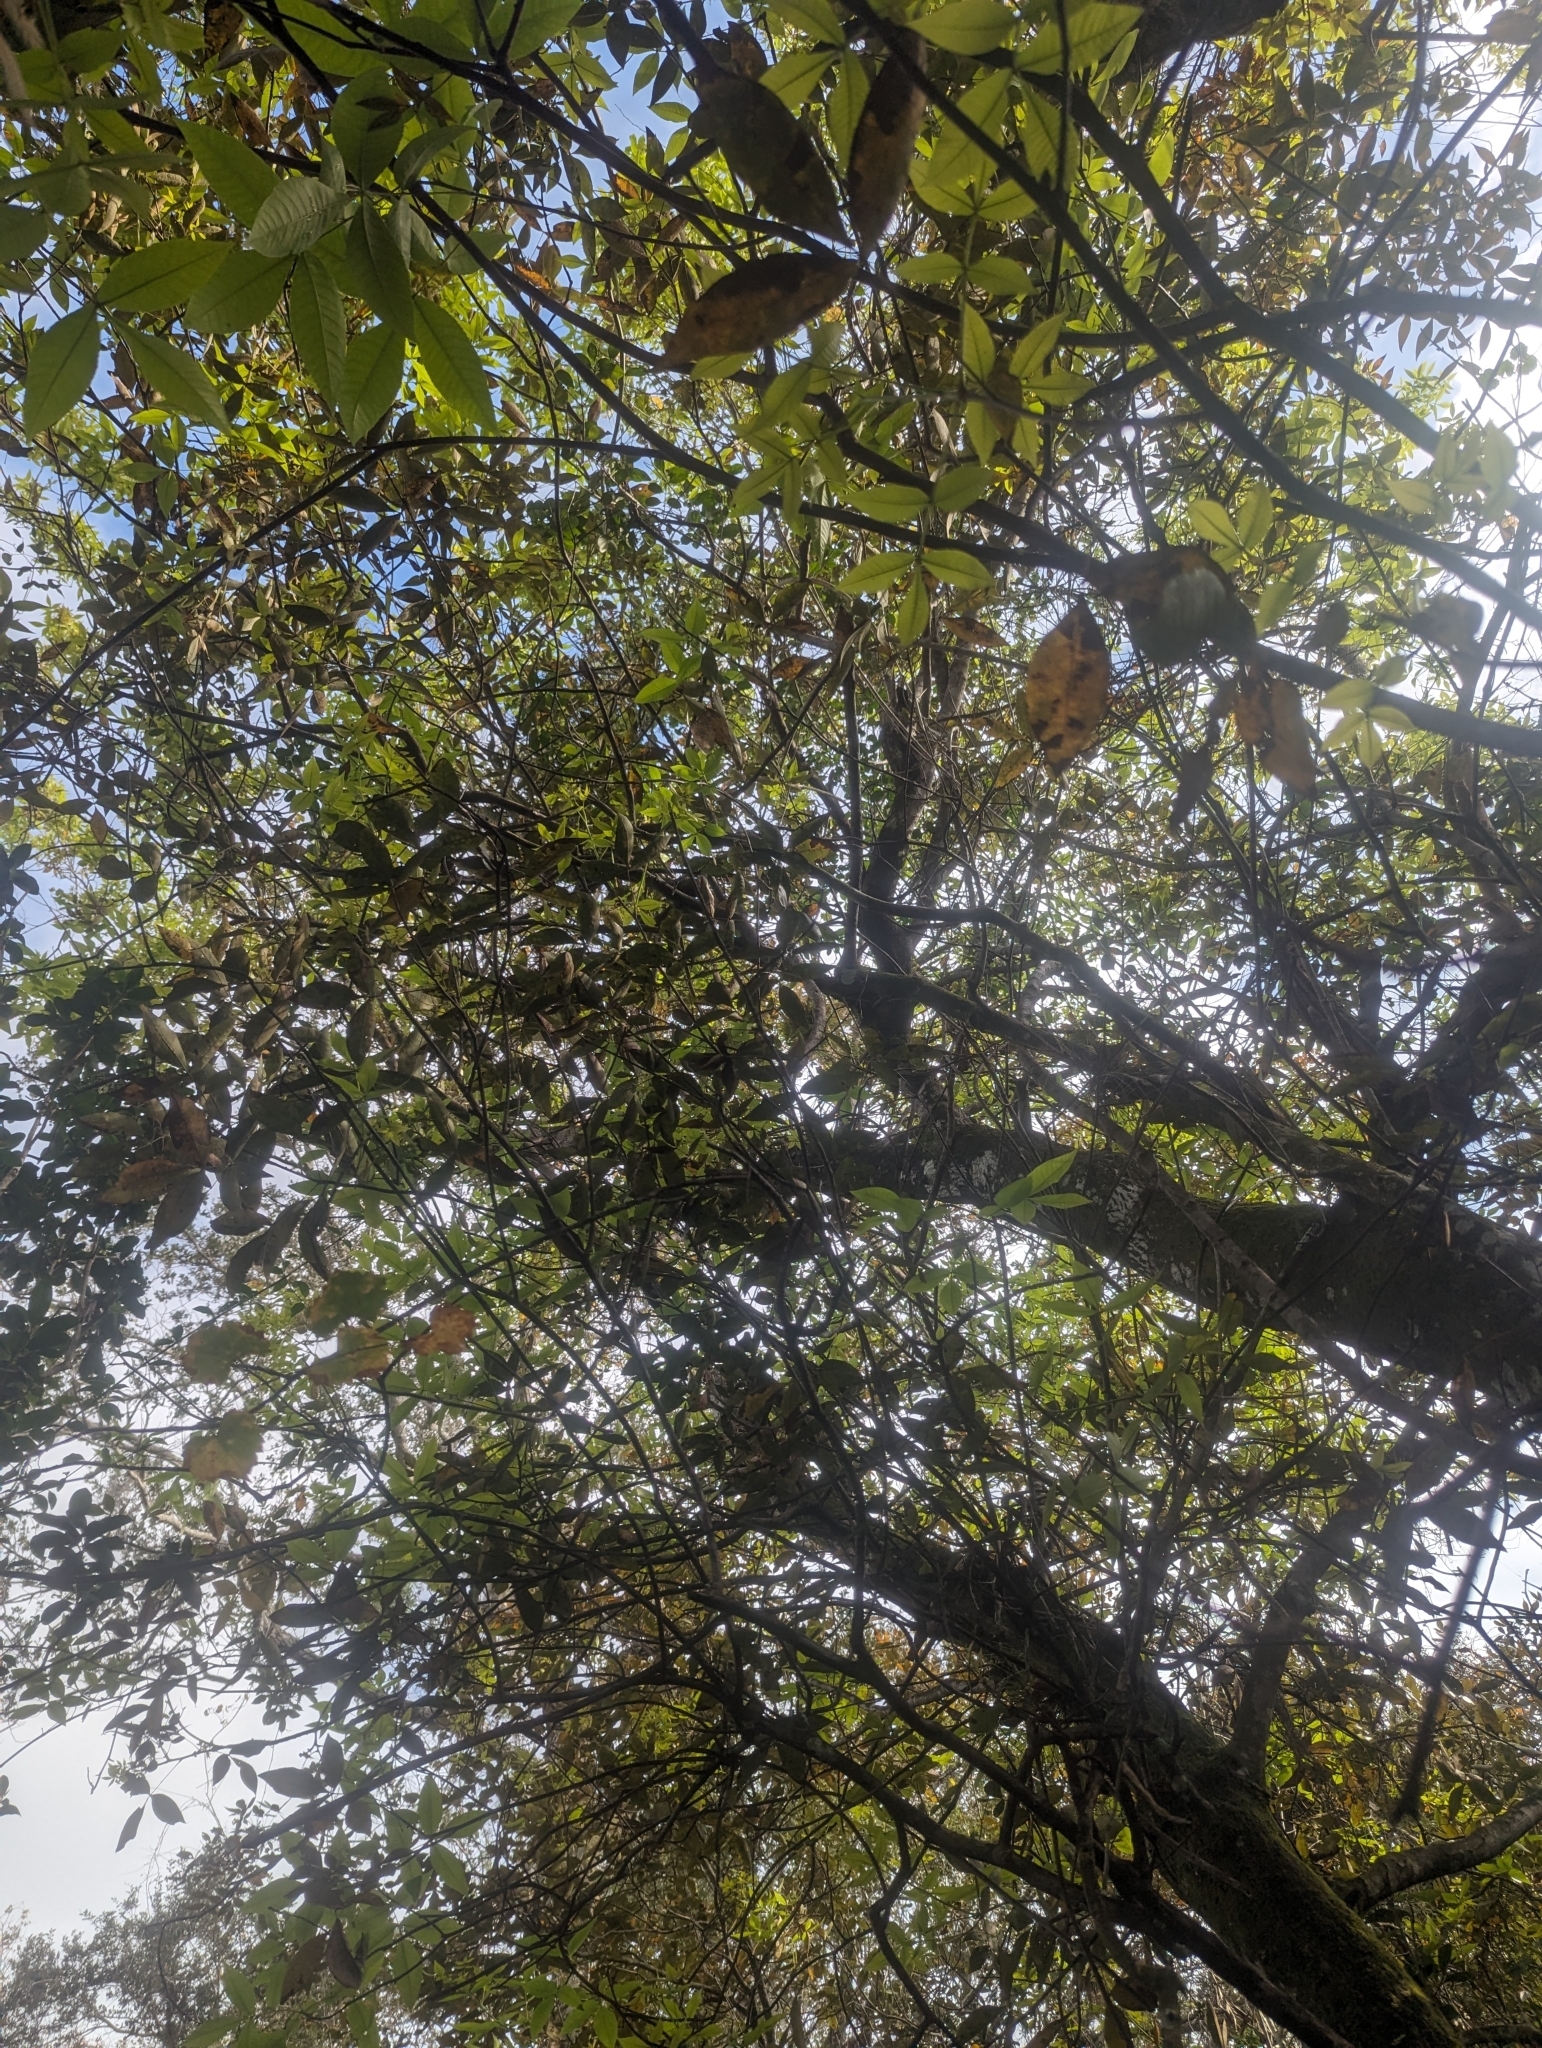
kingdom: Plantae
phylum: Tracheophyta
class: Magnoliopsida
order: Fagales
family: Juglandaceae
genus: Carya
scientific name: Carya floridana
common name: Scrub hickory
